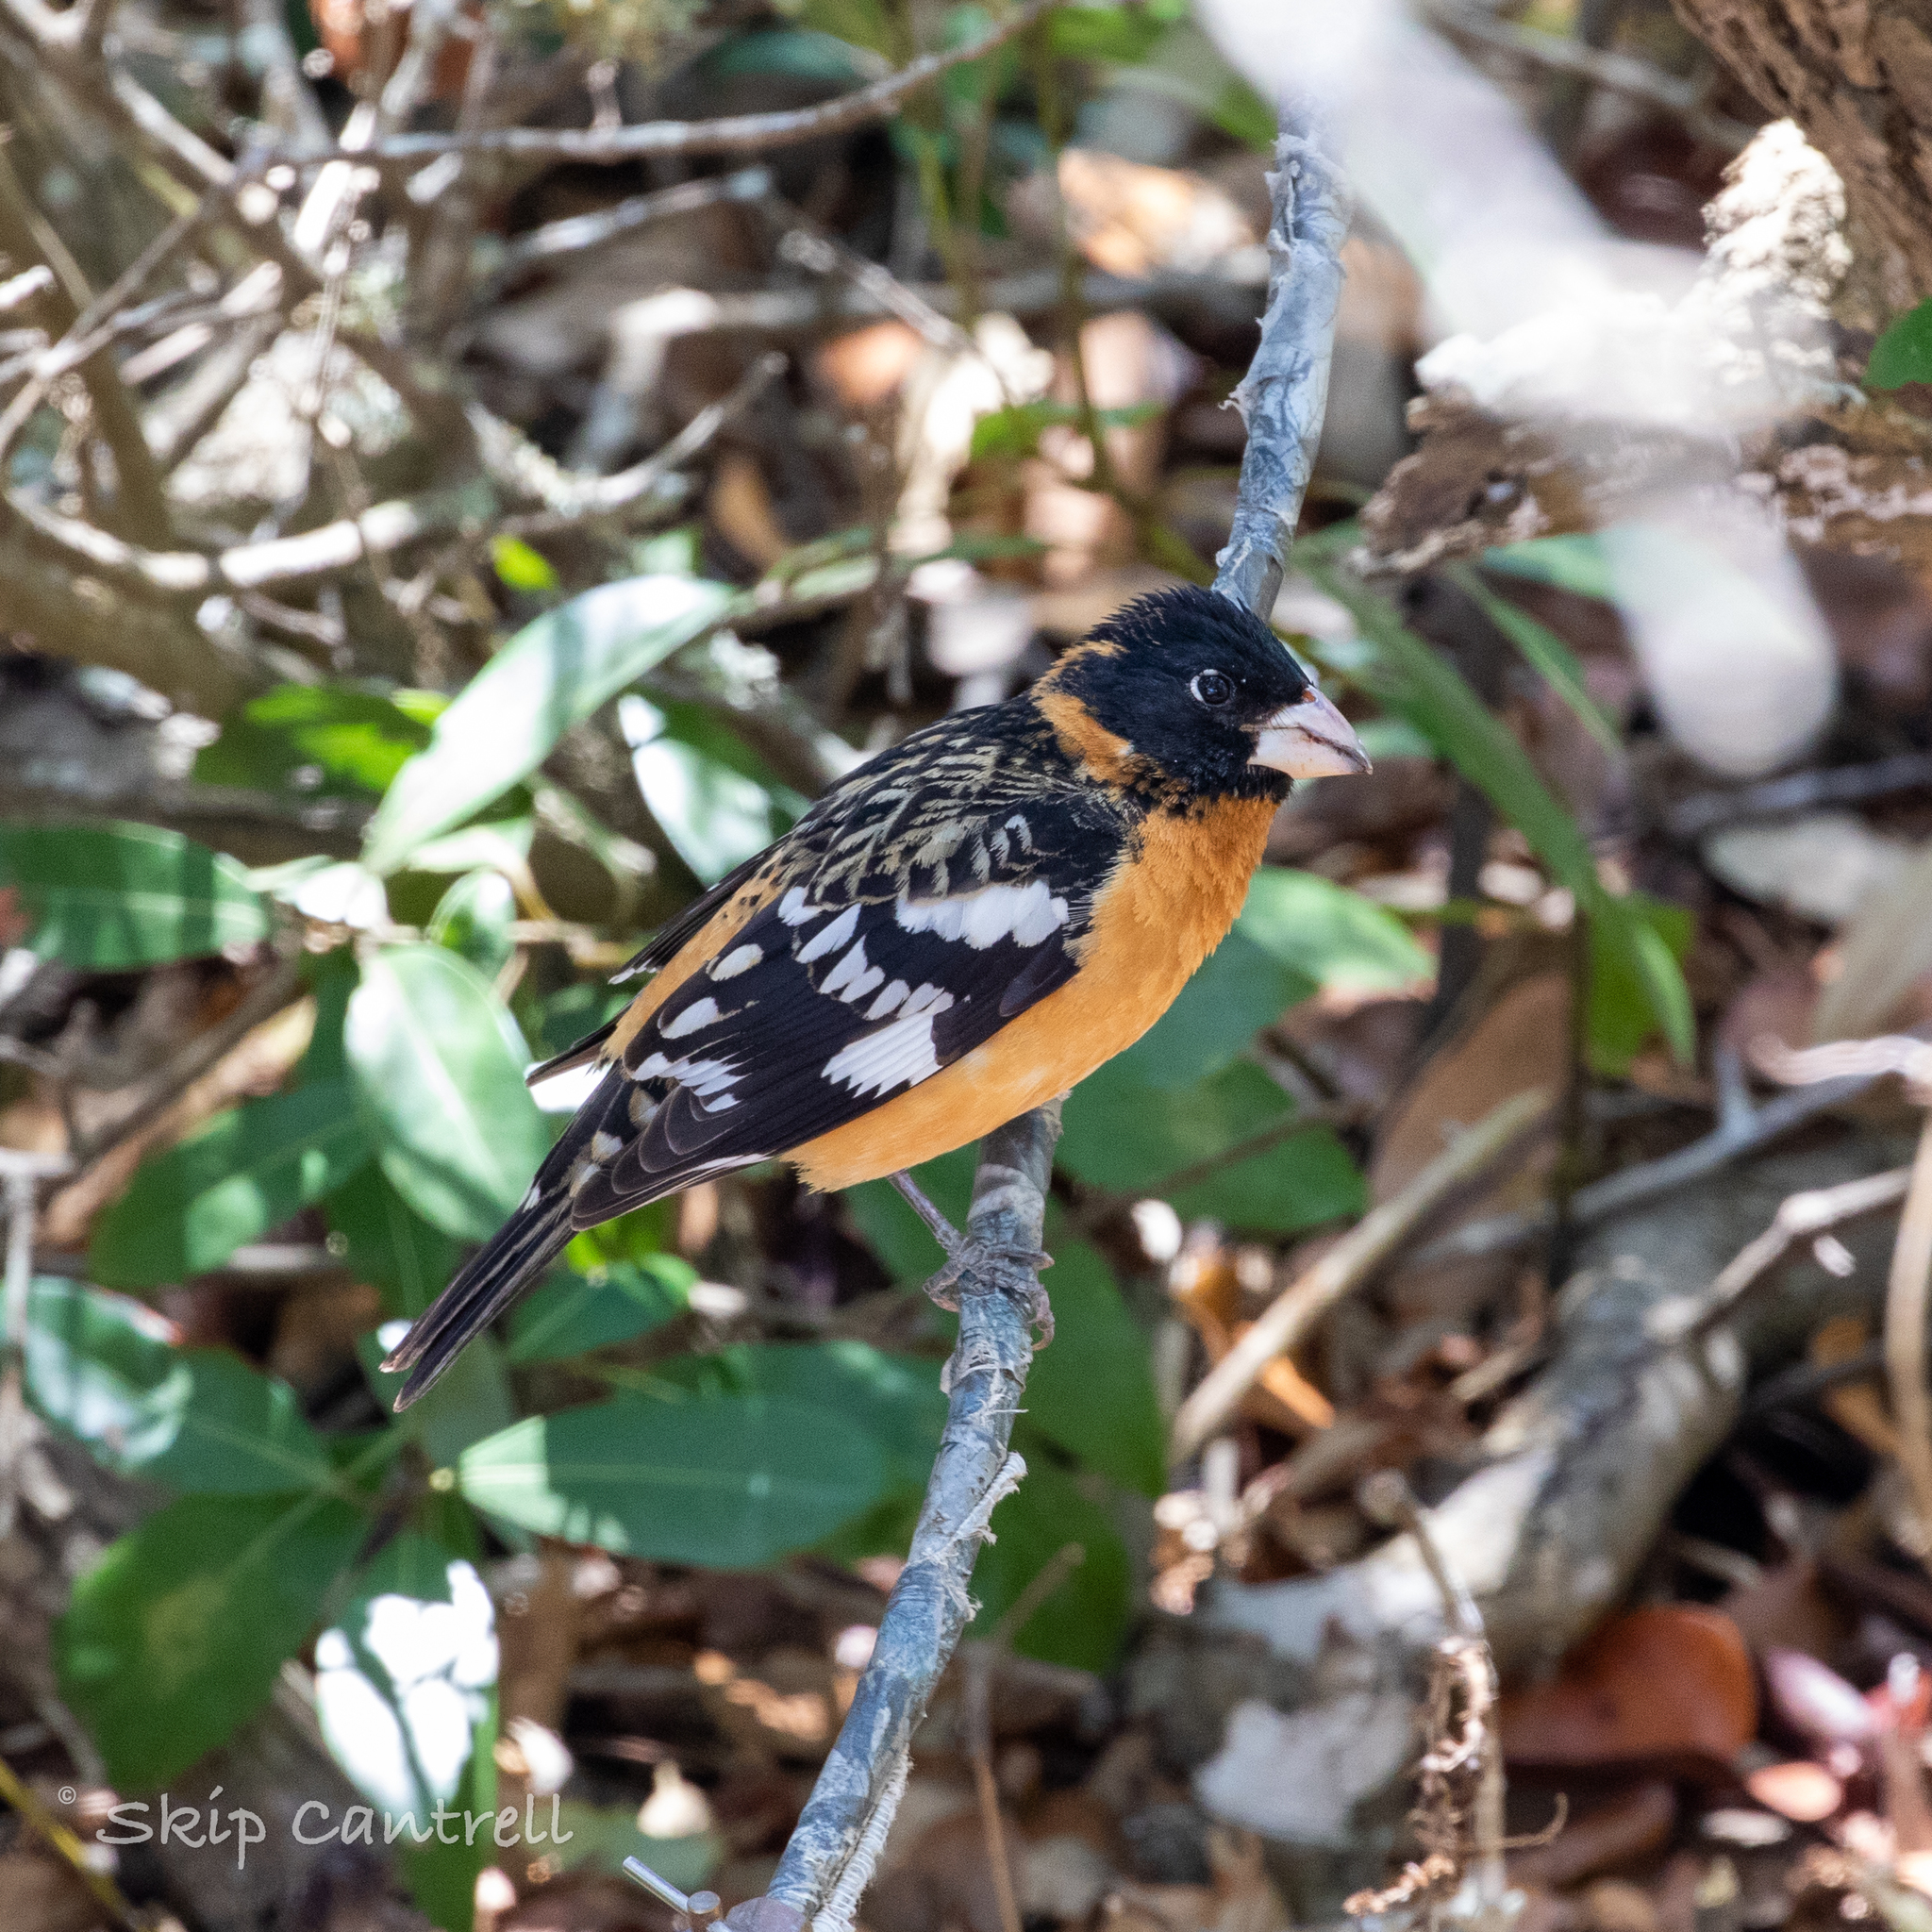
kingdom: Animalia
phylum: Chordata
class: Aves
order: Passeriformes
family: Cardinalidae
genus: Pheucticus
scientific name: Pheucticus melanocephalus
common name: Black-headed grosbeak
